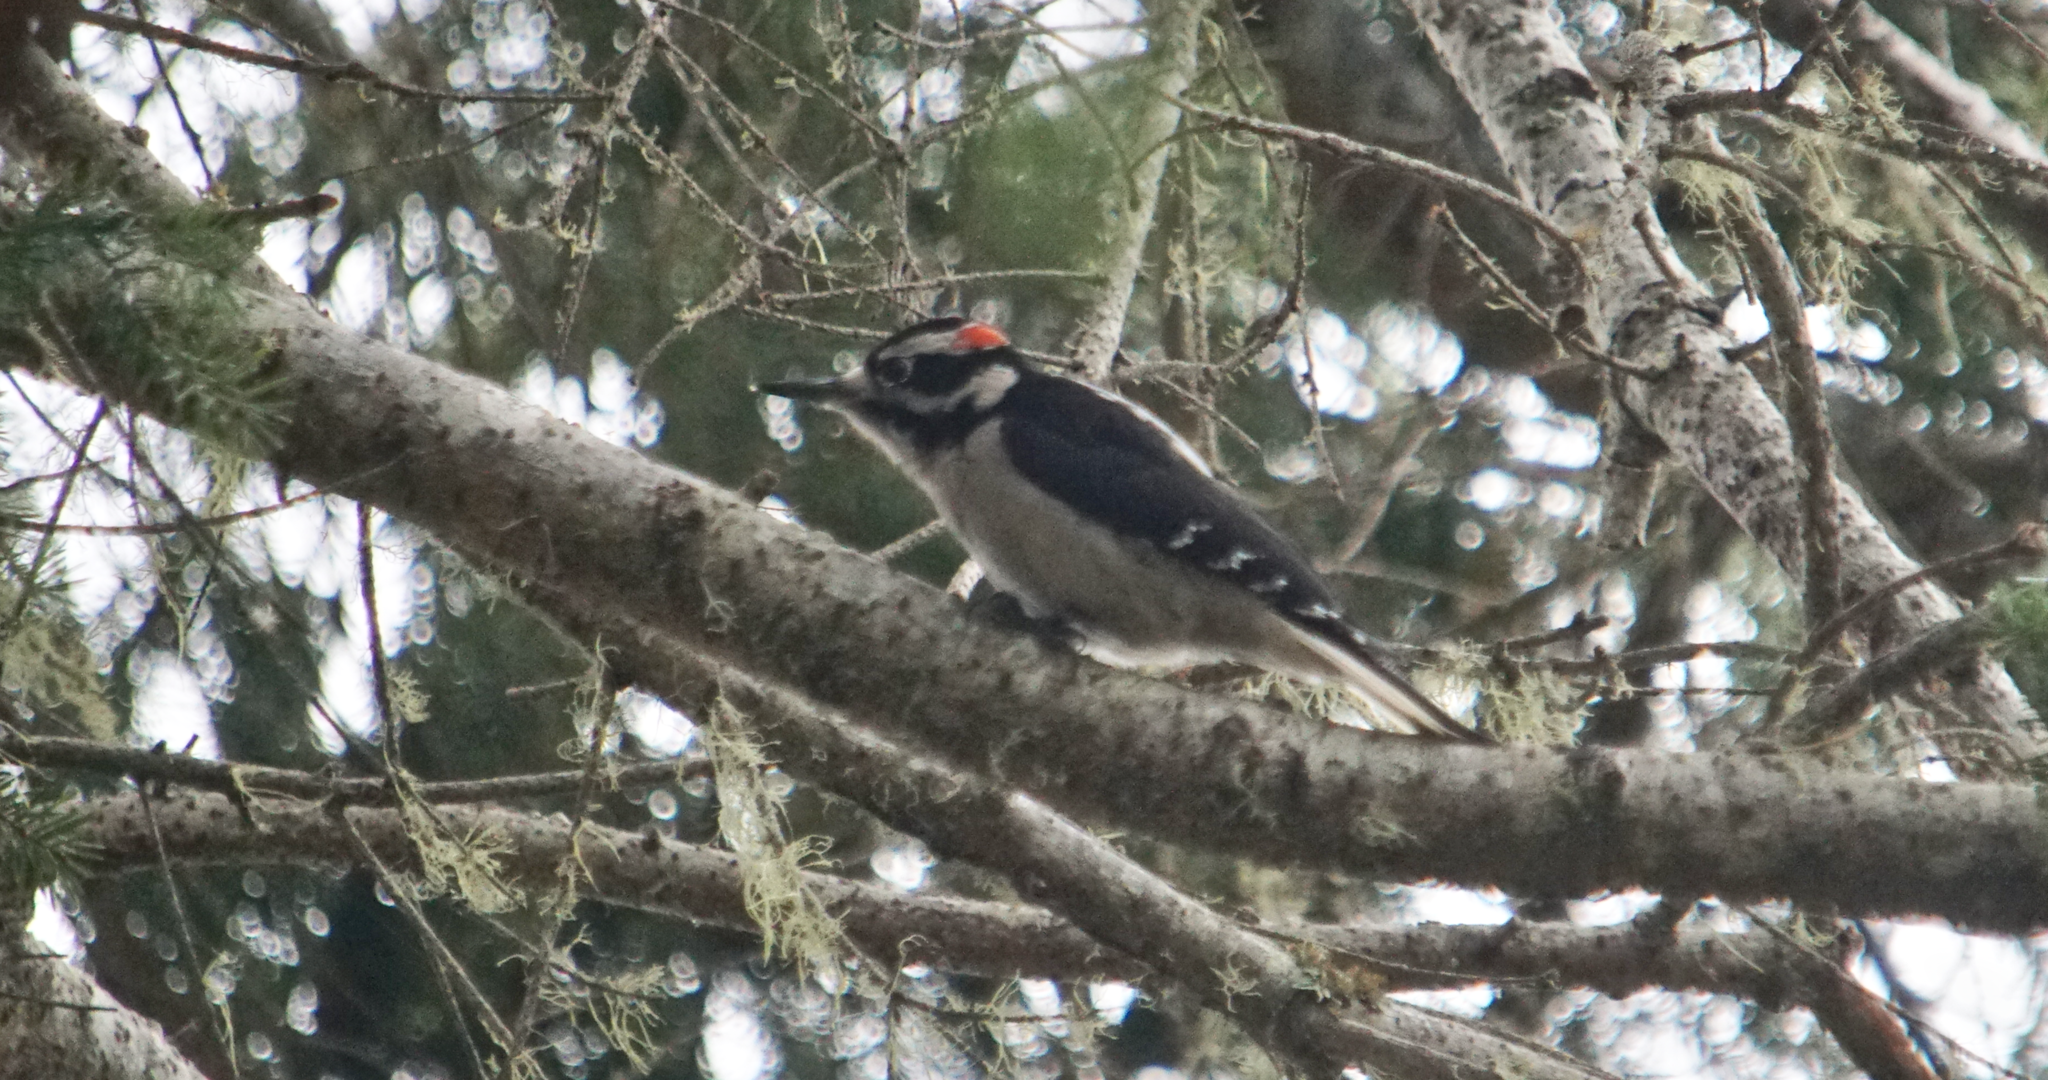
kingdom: Animalia
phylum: Chordata
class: Aves
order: Piciformes
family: Picidae
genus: Leuconotopicus
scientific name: Leuconotopicus villosus
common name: Hairy woodpecker
